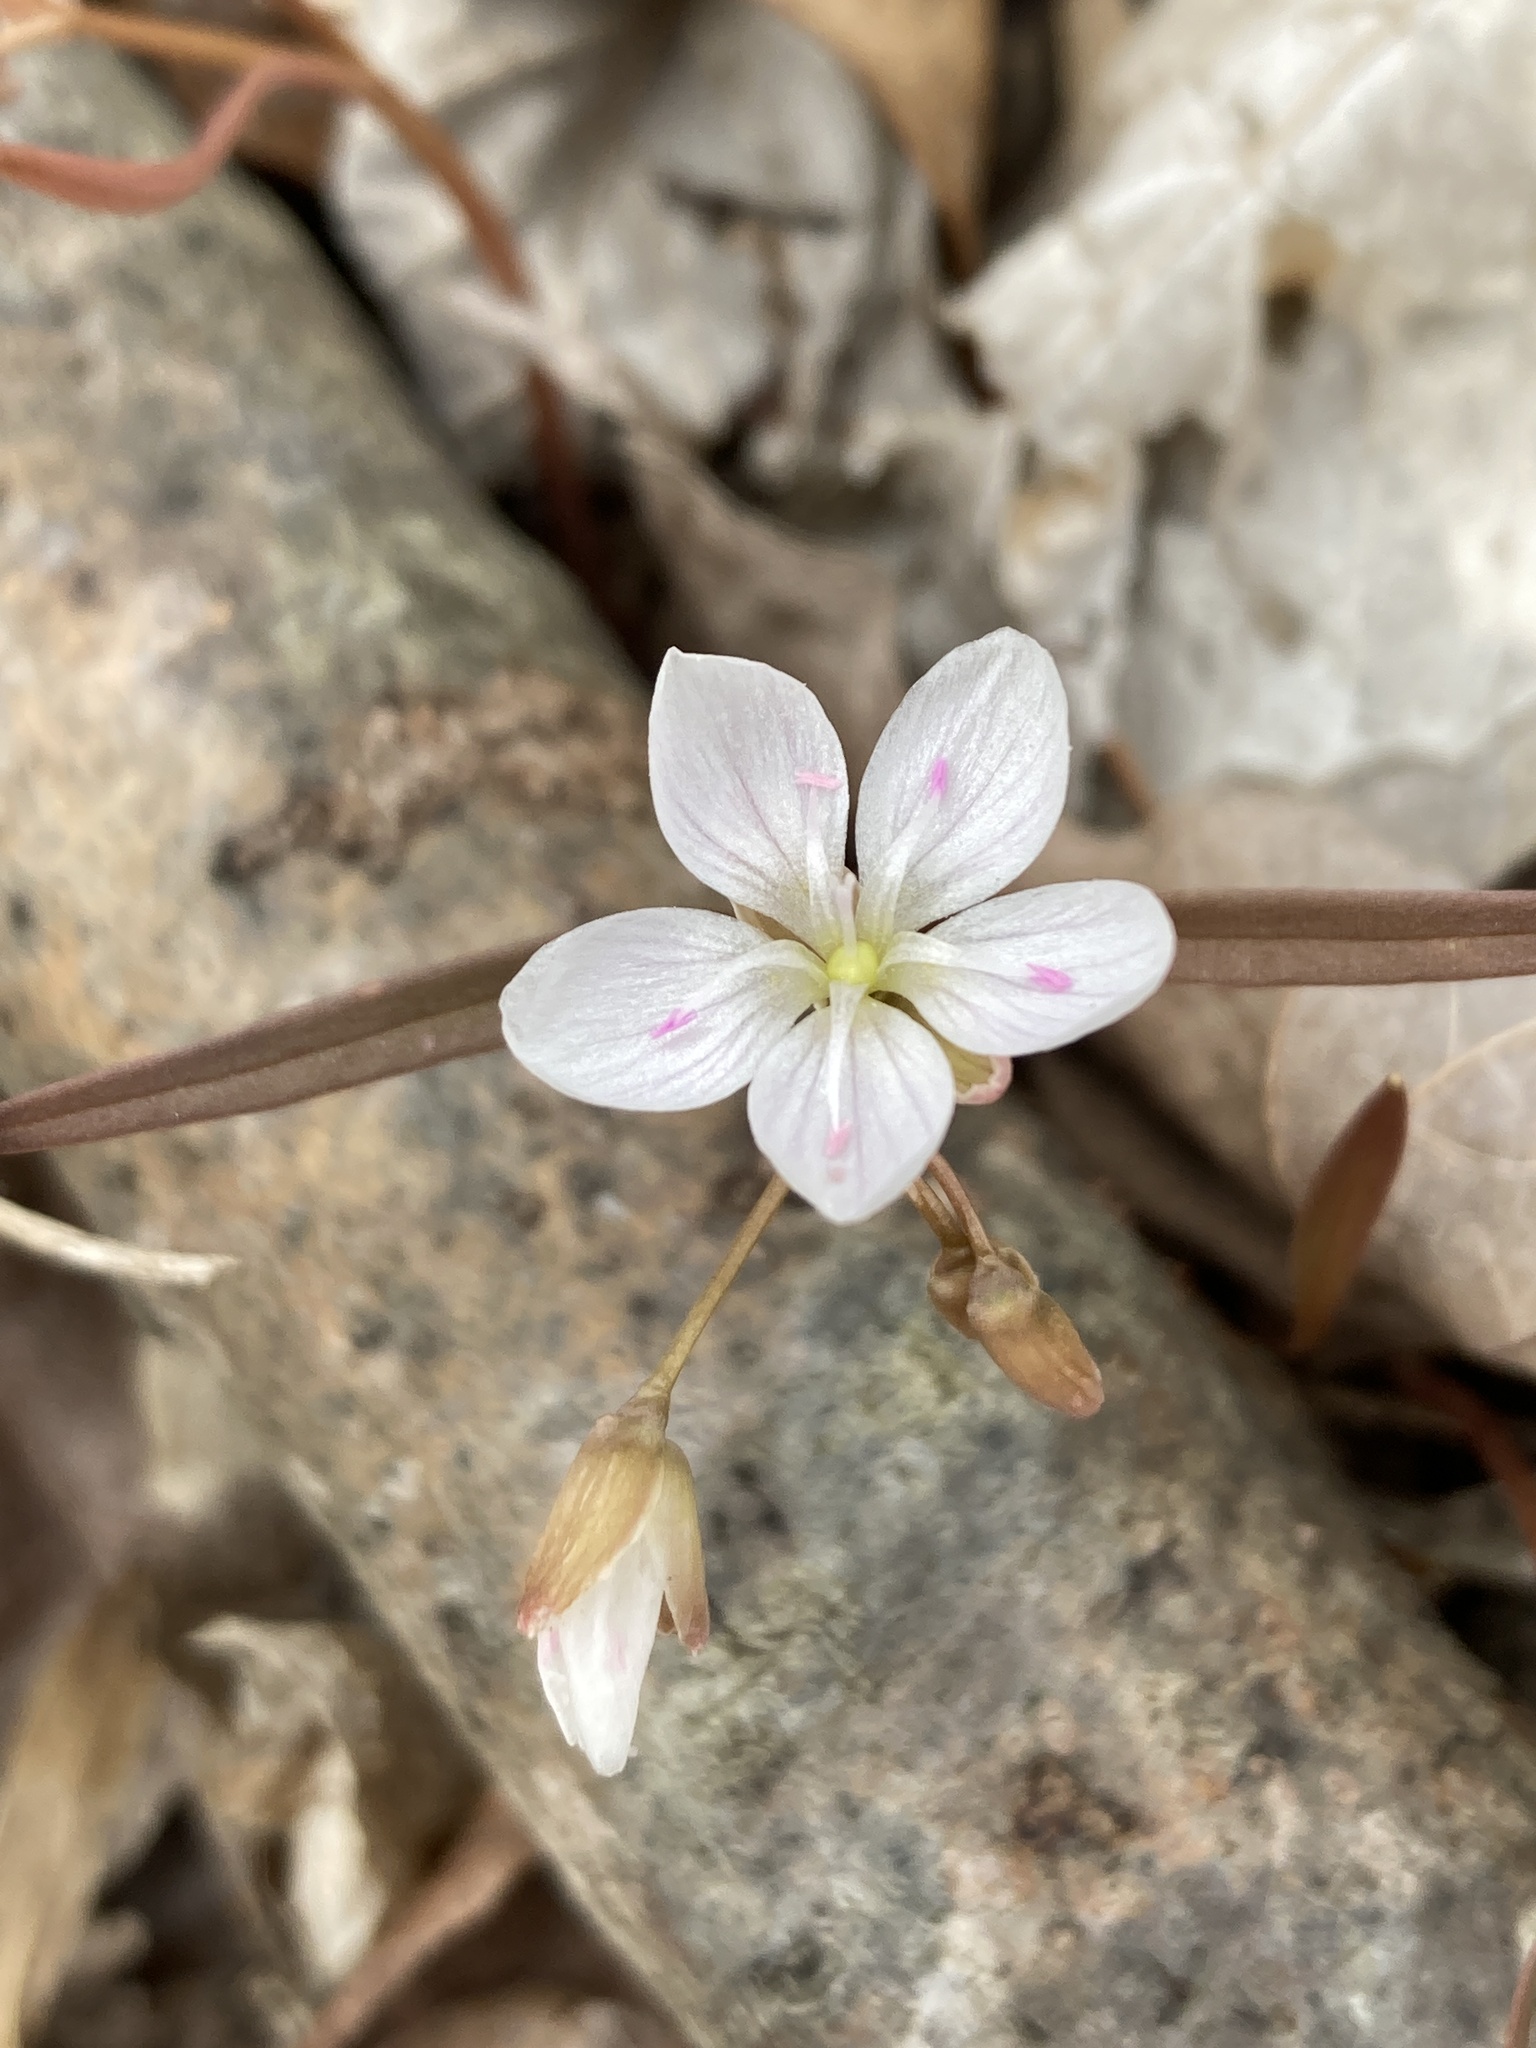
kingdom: Plantae
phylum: Tracheophyta
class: Magnoliopsida
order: Caryophyllales
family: Montiaceae
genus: Claytonia
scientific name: Claytonia virginica
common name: Virginia springbeauty
